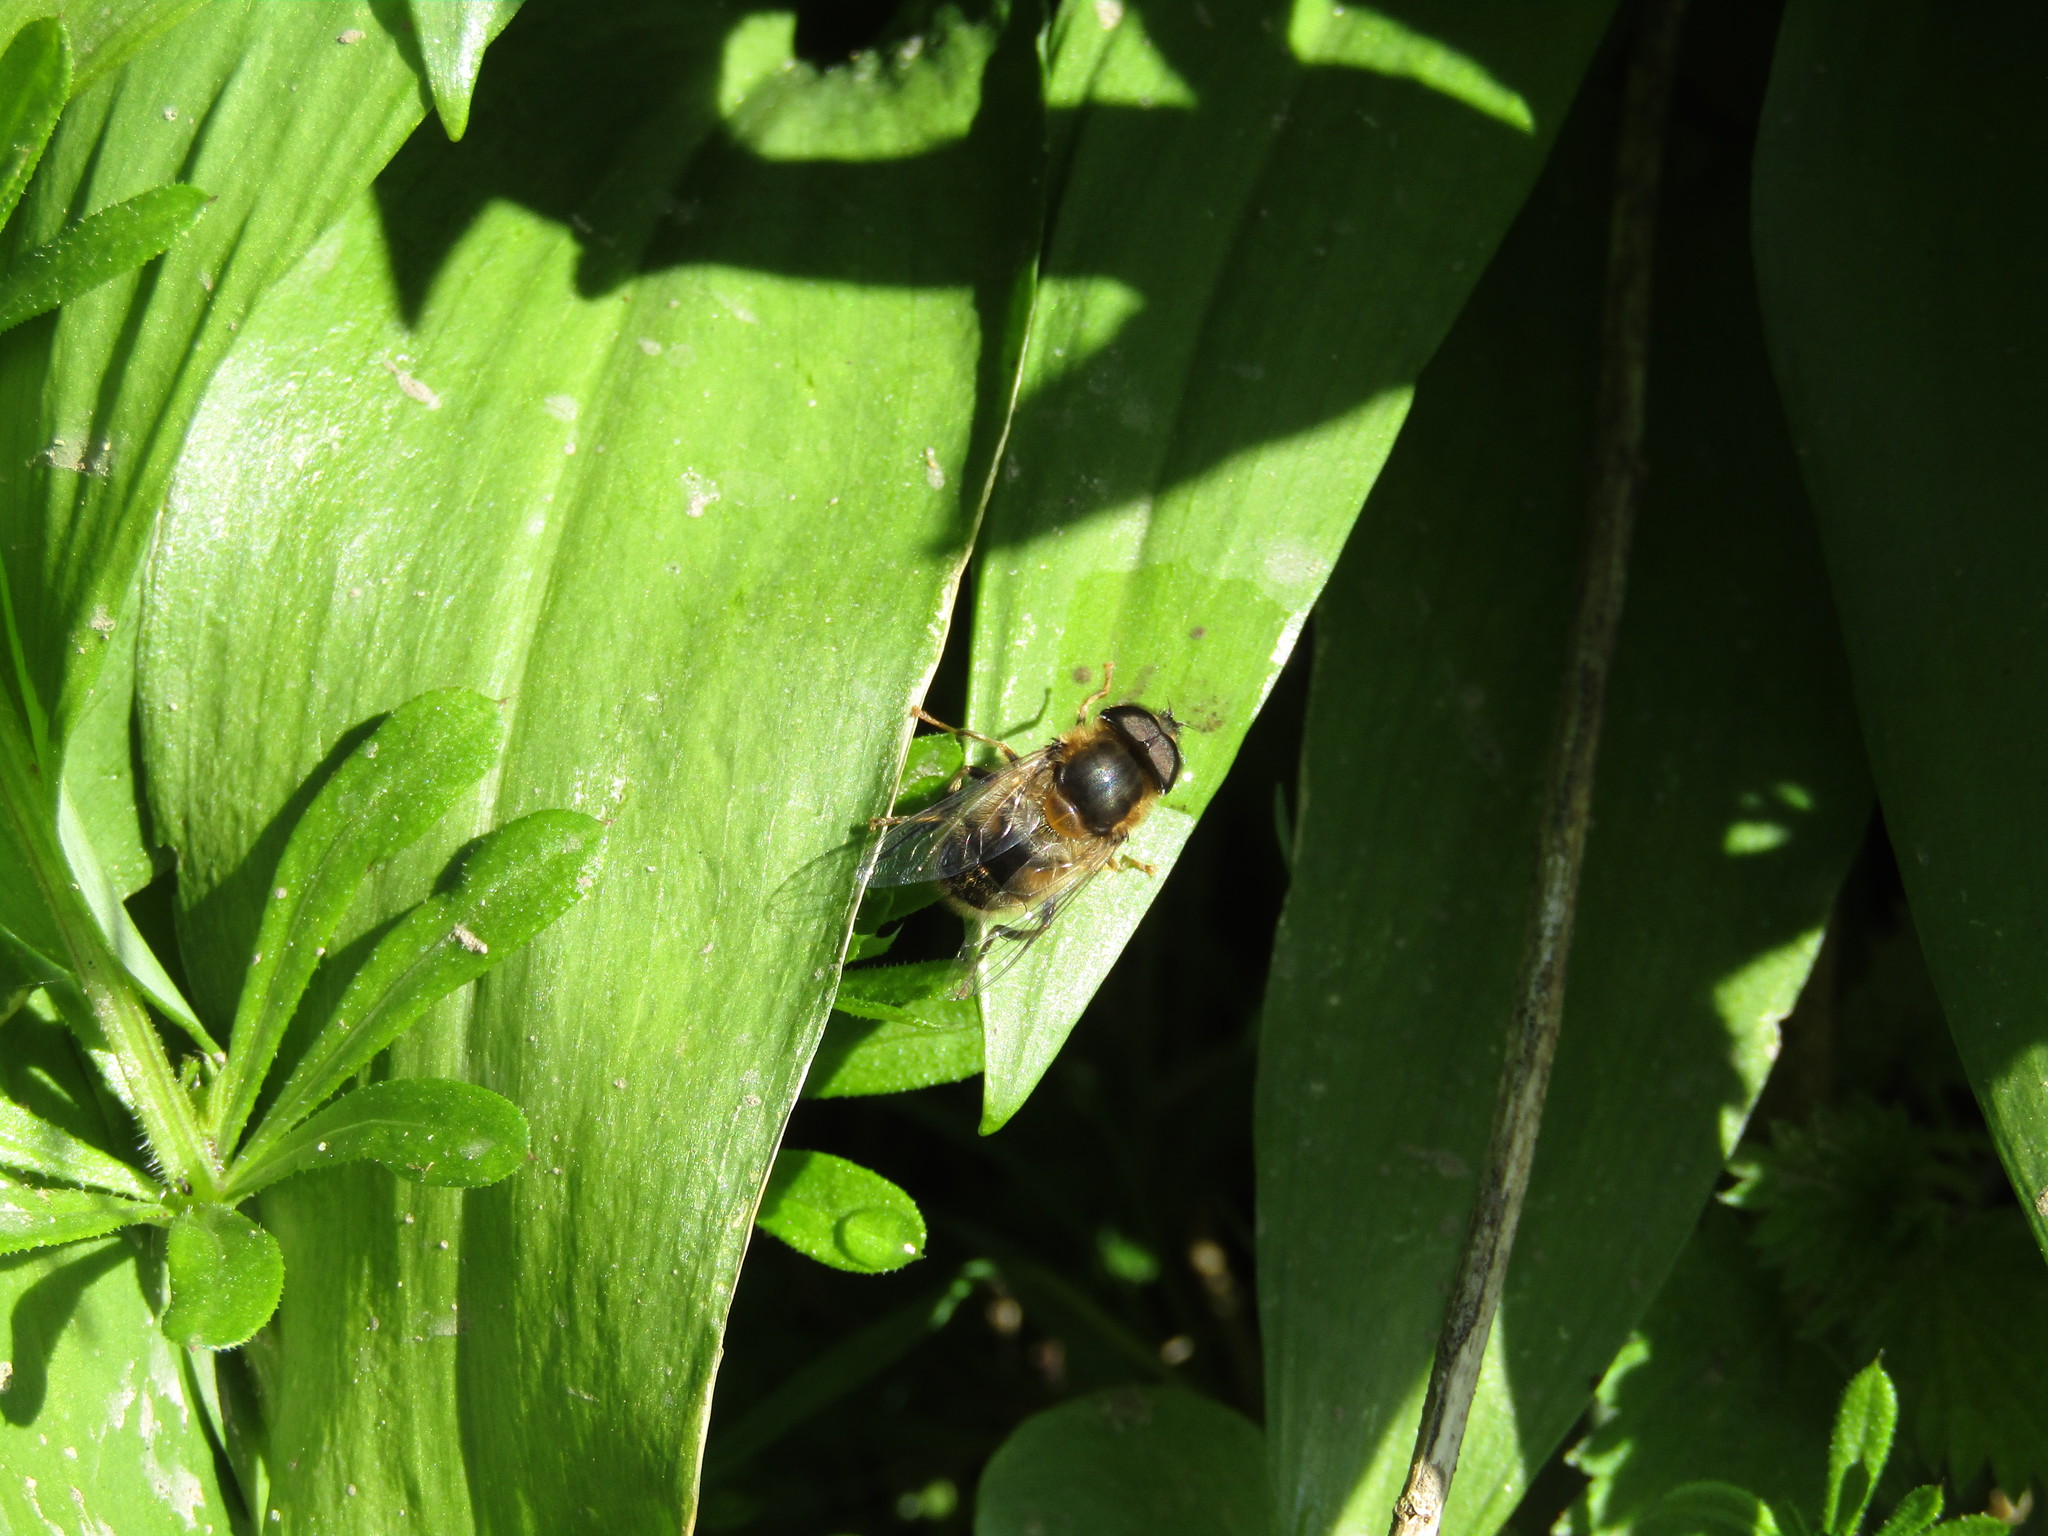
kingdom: Animalia
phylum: Arthropoda
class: Insecta
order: Diptera
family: Syrphidae
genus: Eristalis
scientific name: Eristalis pertinax
